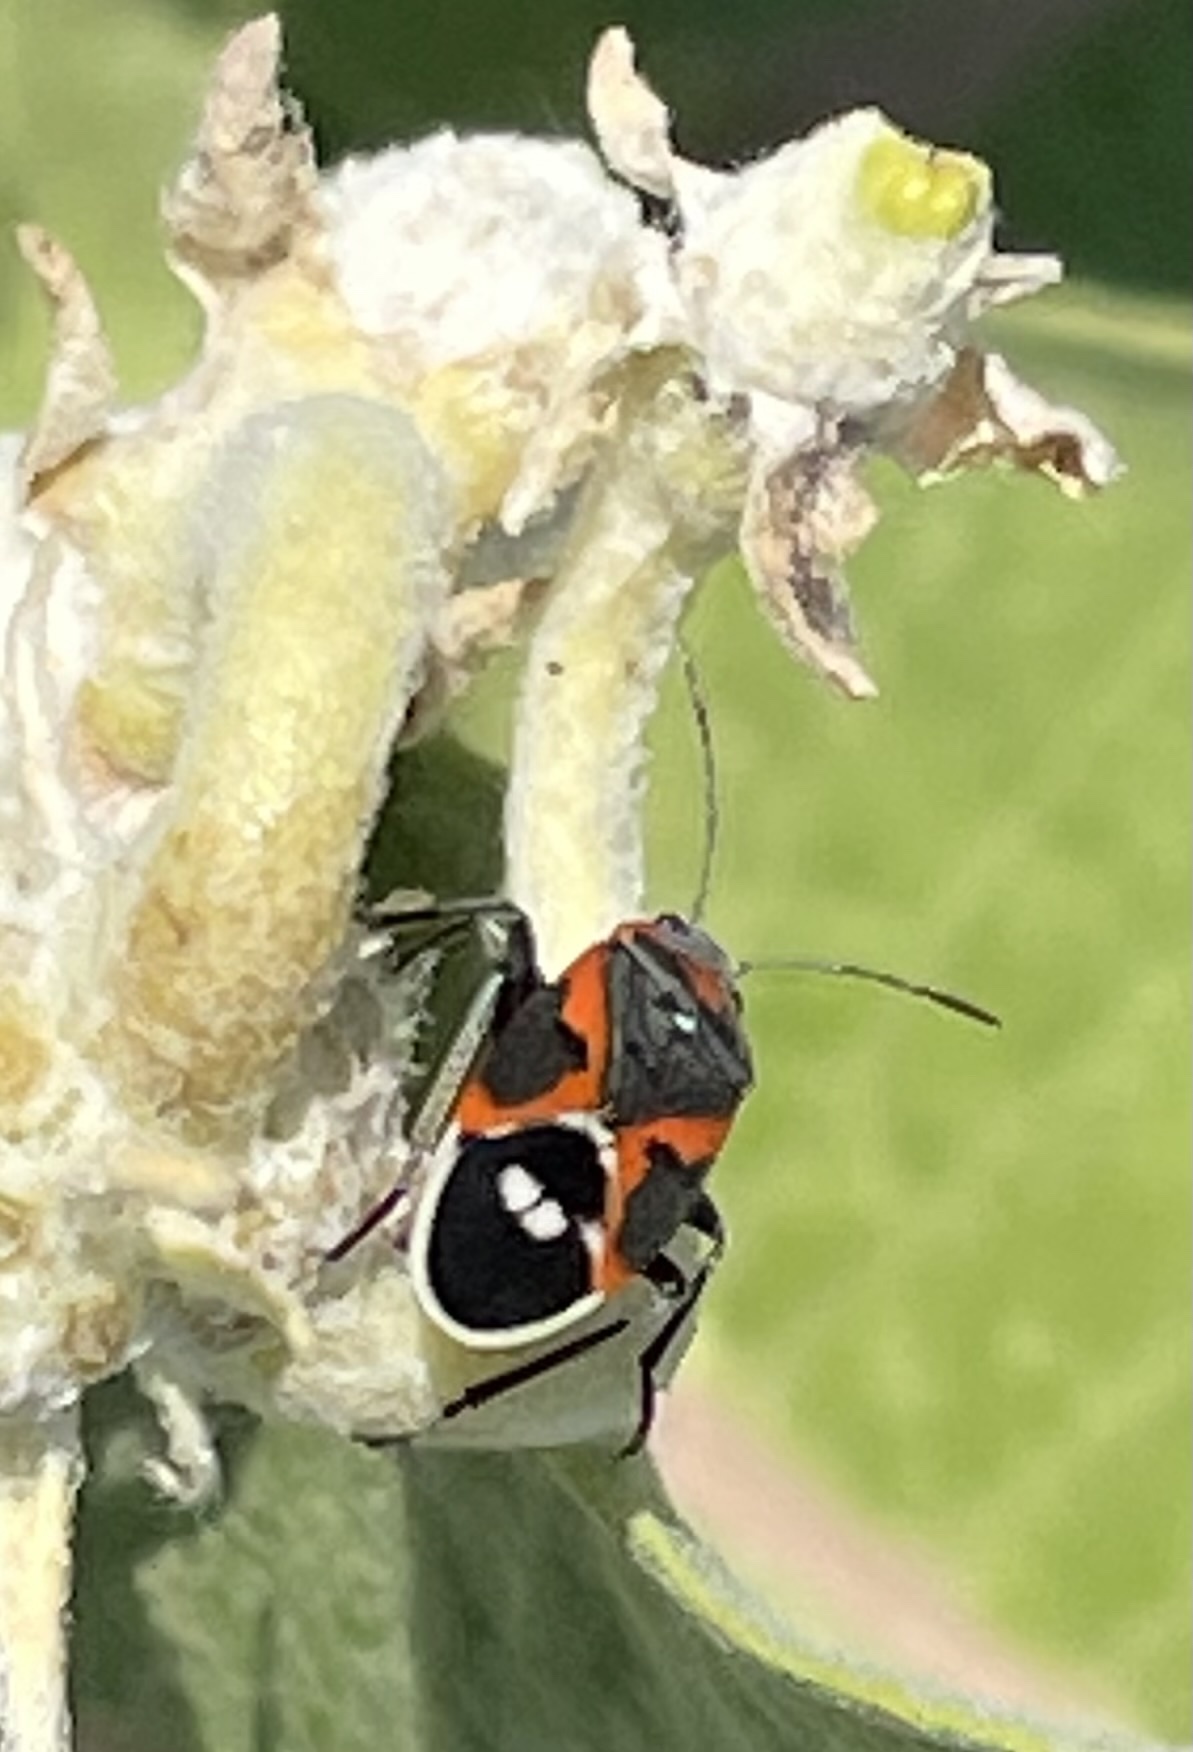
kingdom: Animalia
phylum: Arthropoda
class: Insecta
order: Hemiptera
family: Lygaeidae
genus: Lygaeus
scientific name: Lygaeus kalmii
